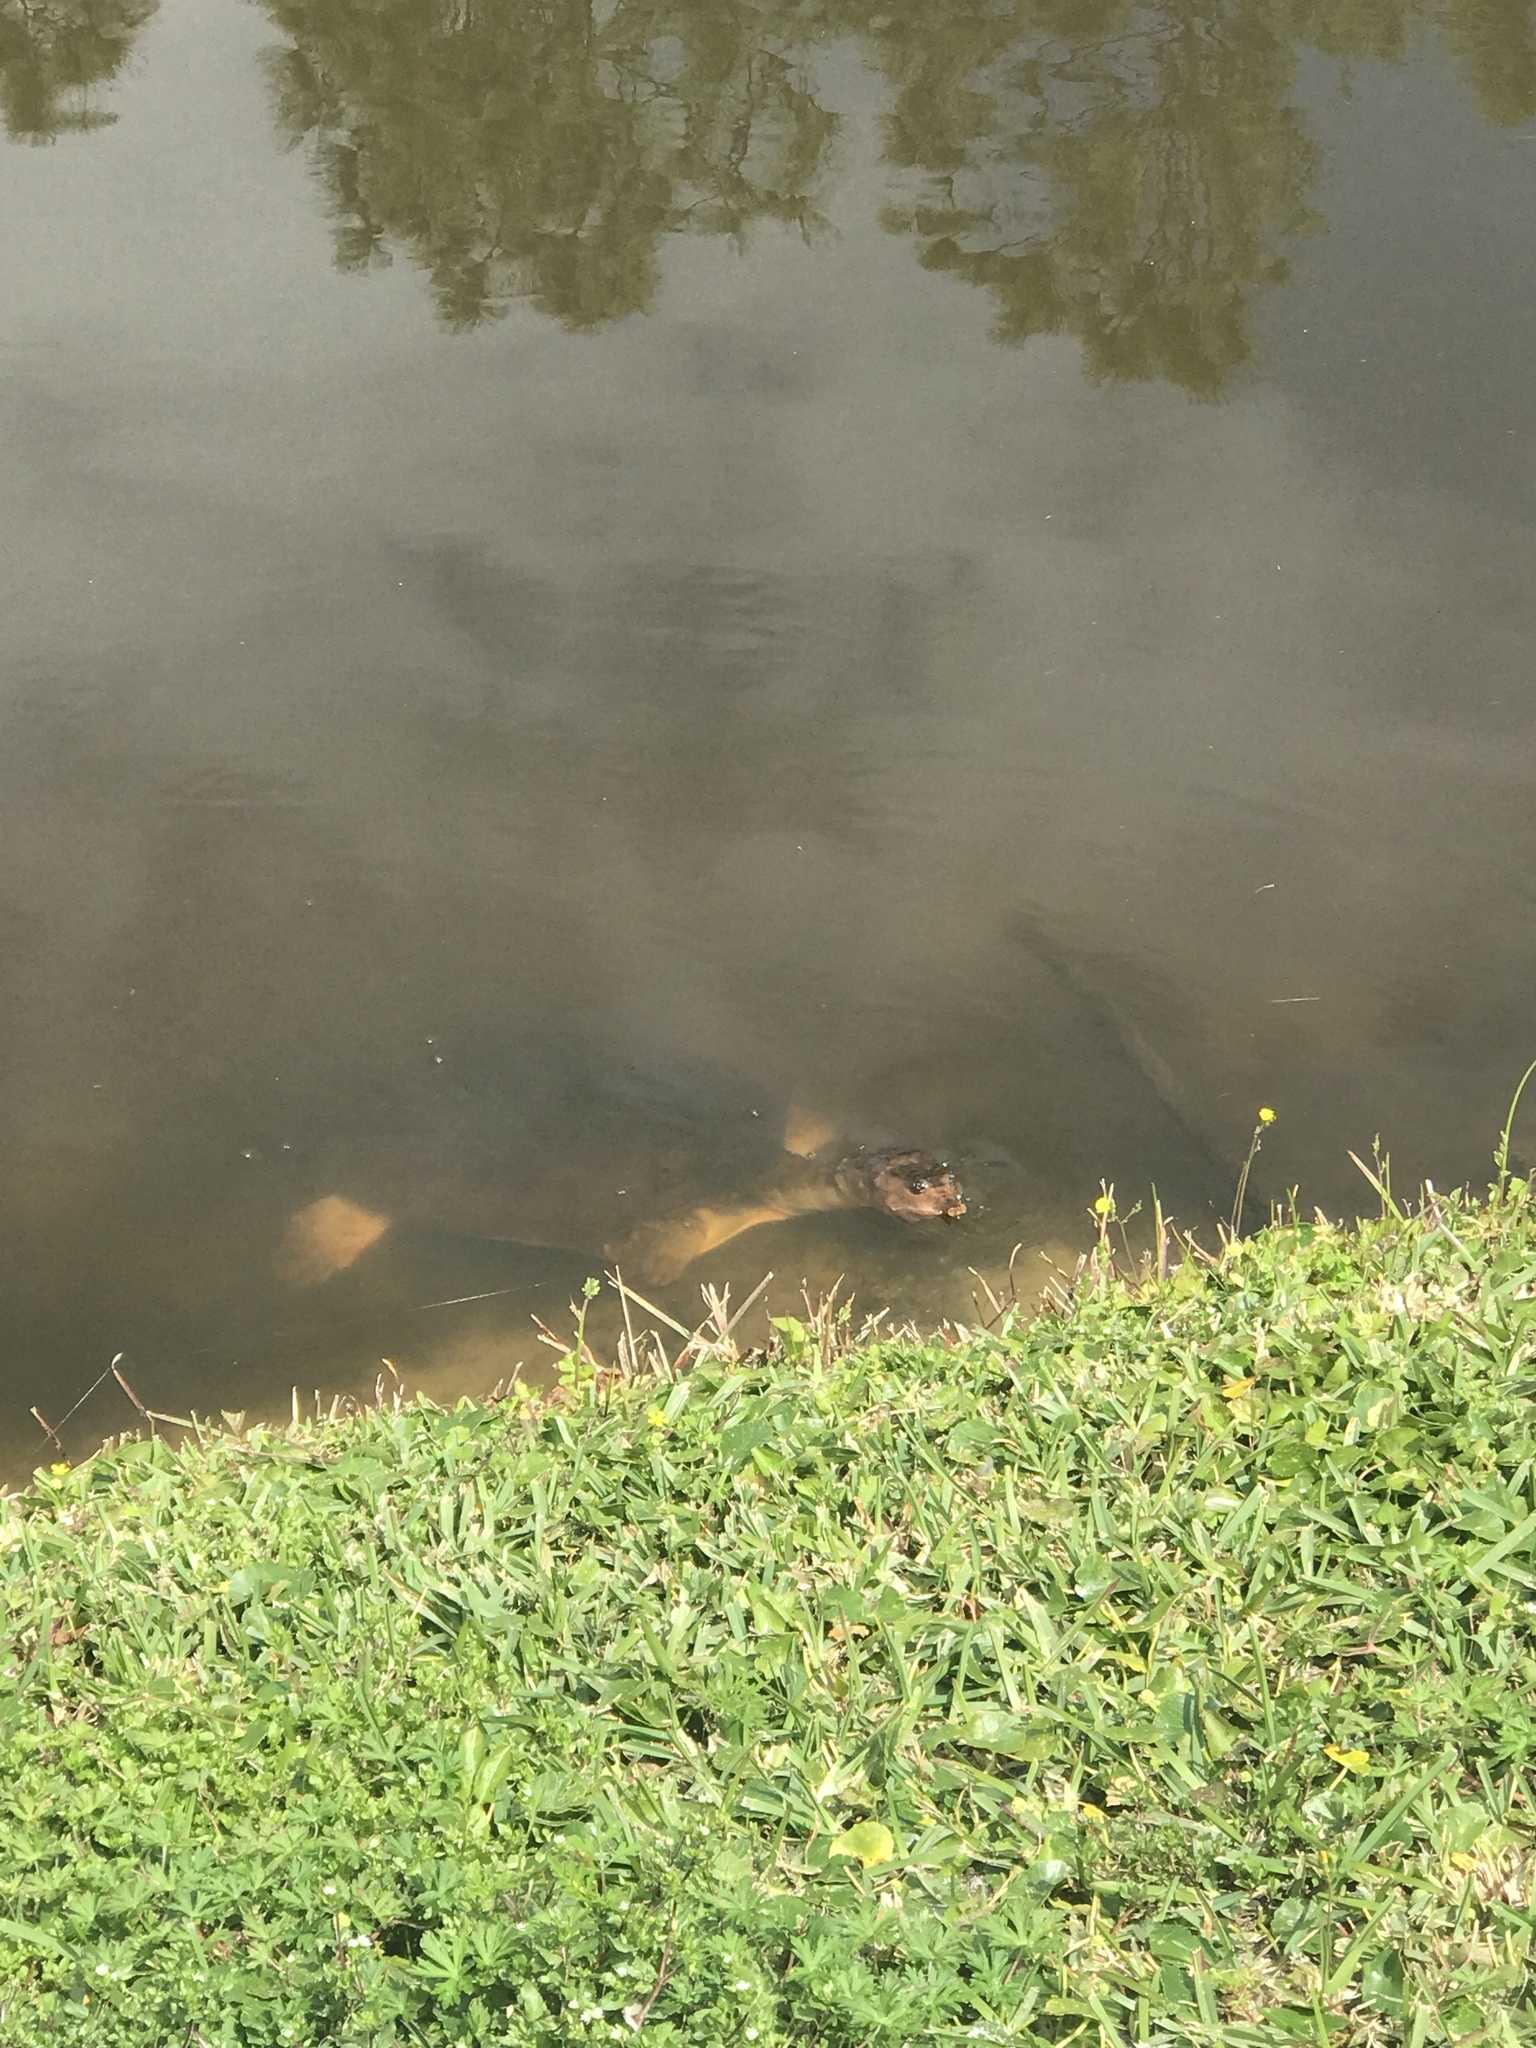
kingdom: Animalia
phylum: Chordata
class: Testudines
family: Trionychidae
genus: Apalone
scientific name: Apalone ferox
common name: Florida softshell turtle
